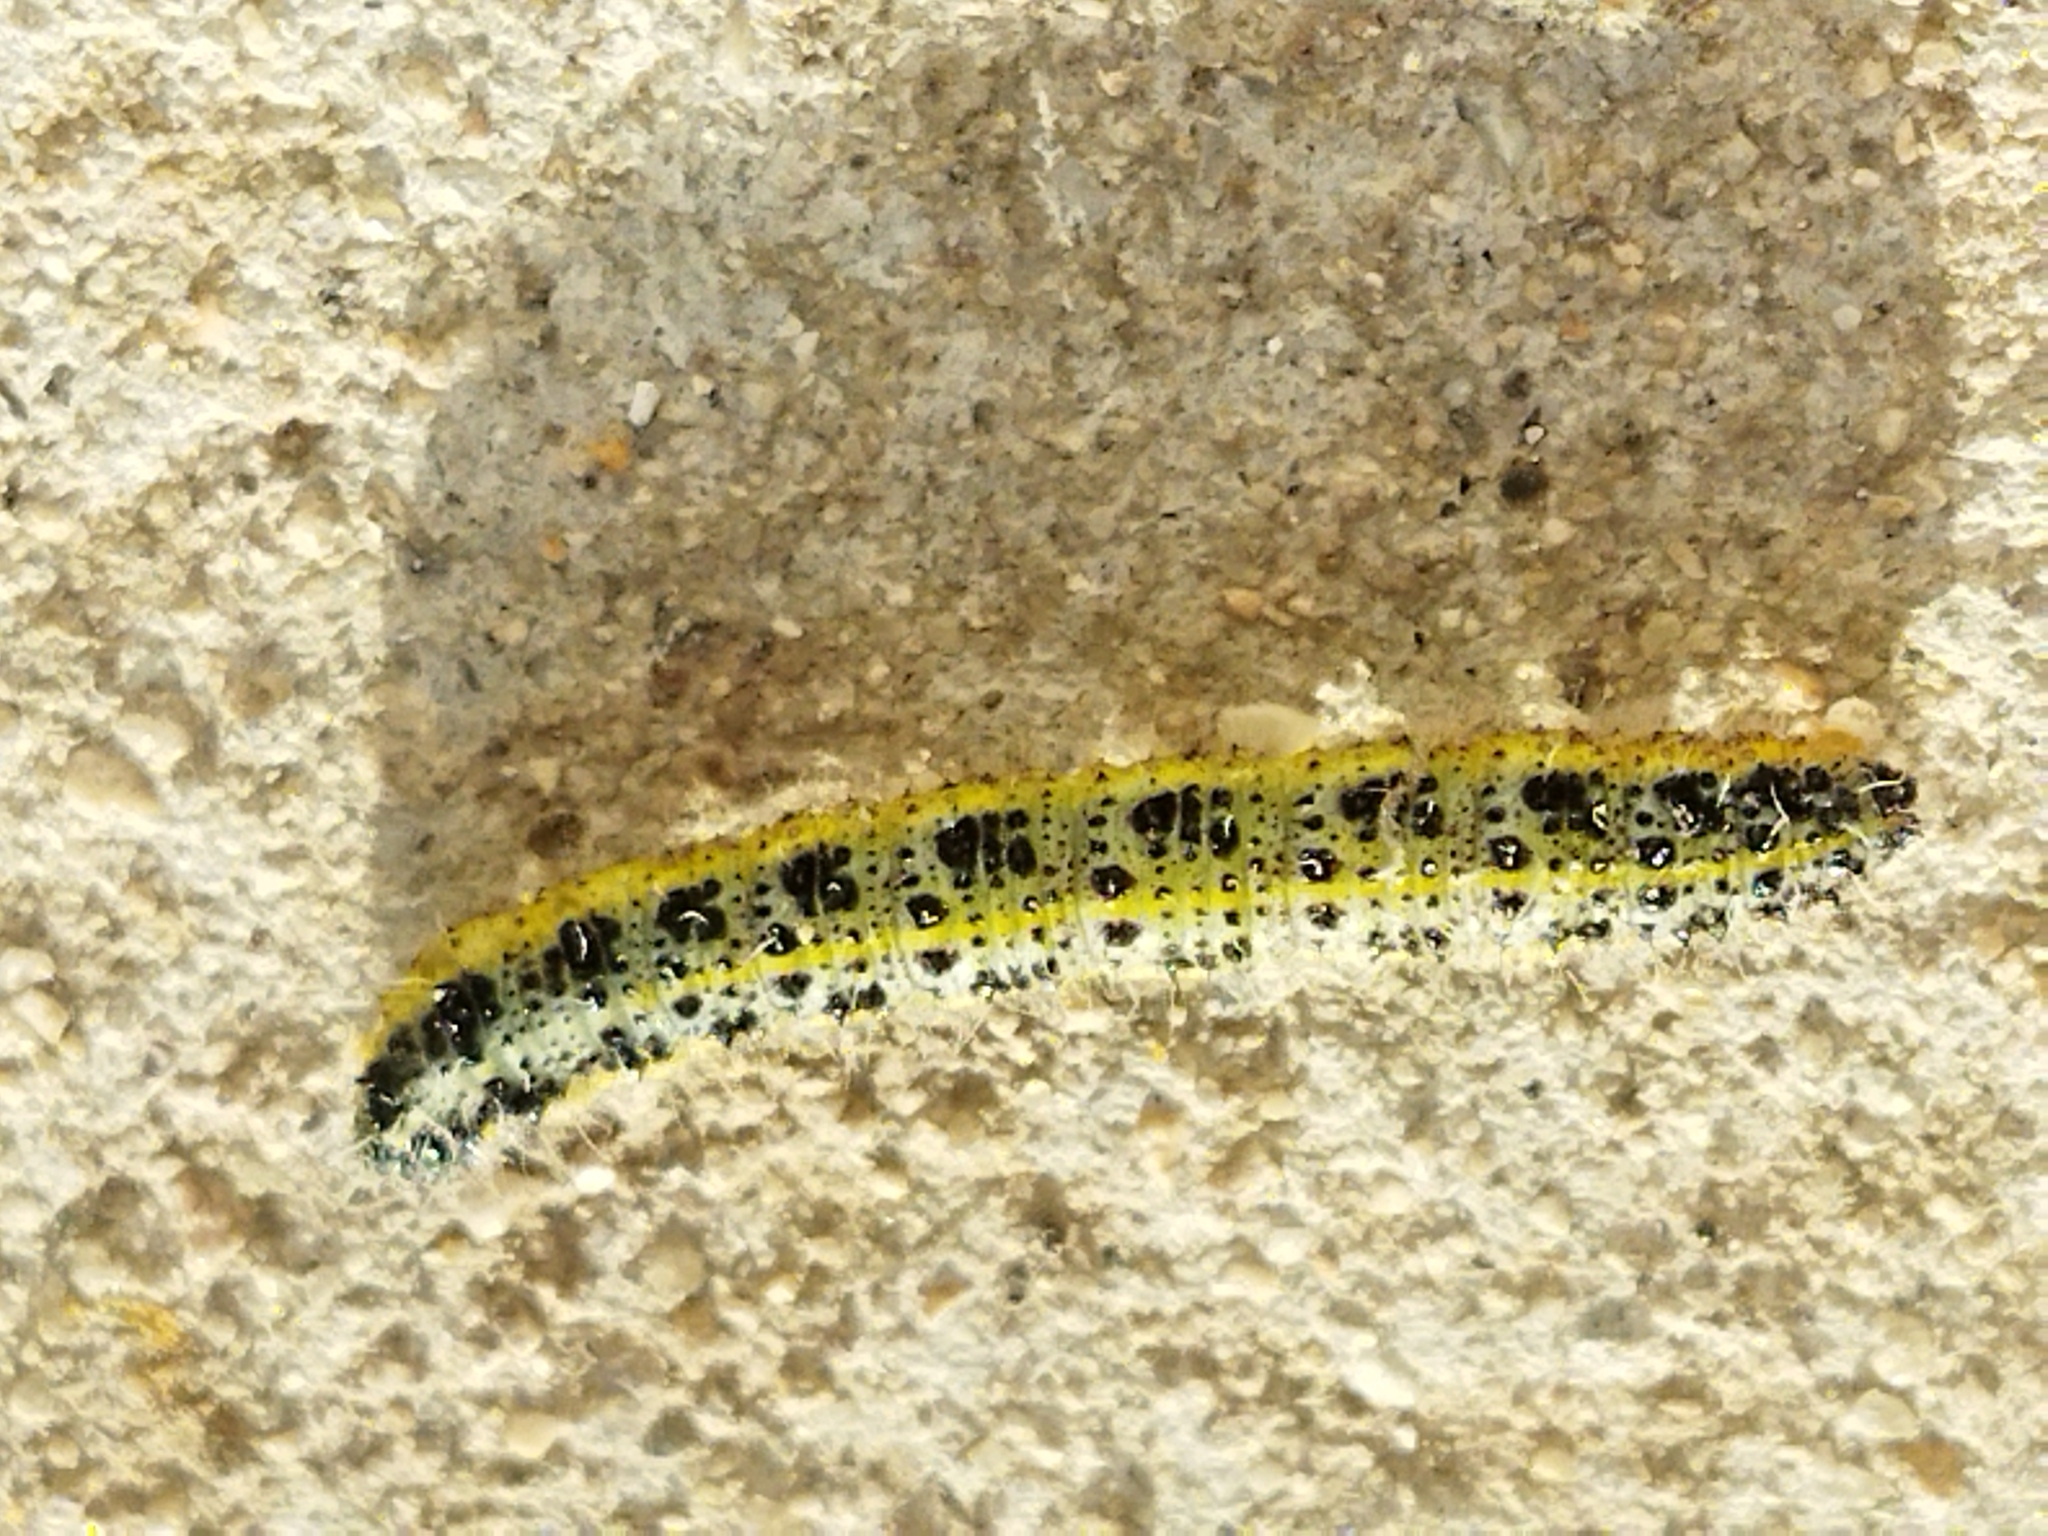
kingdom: Animalia
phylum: Arthropoda
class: Insecta
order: Lepidoptera
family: Pieridae
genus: Pieris
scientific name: Pieris brassicae
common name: Large white
